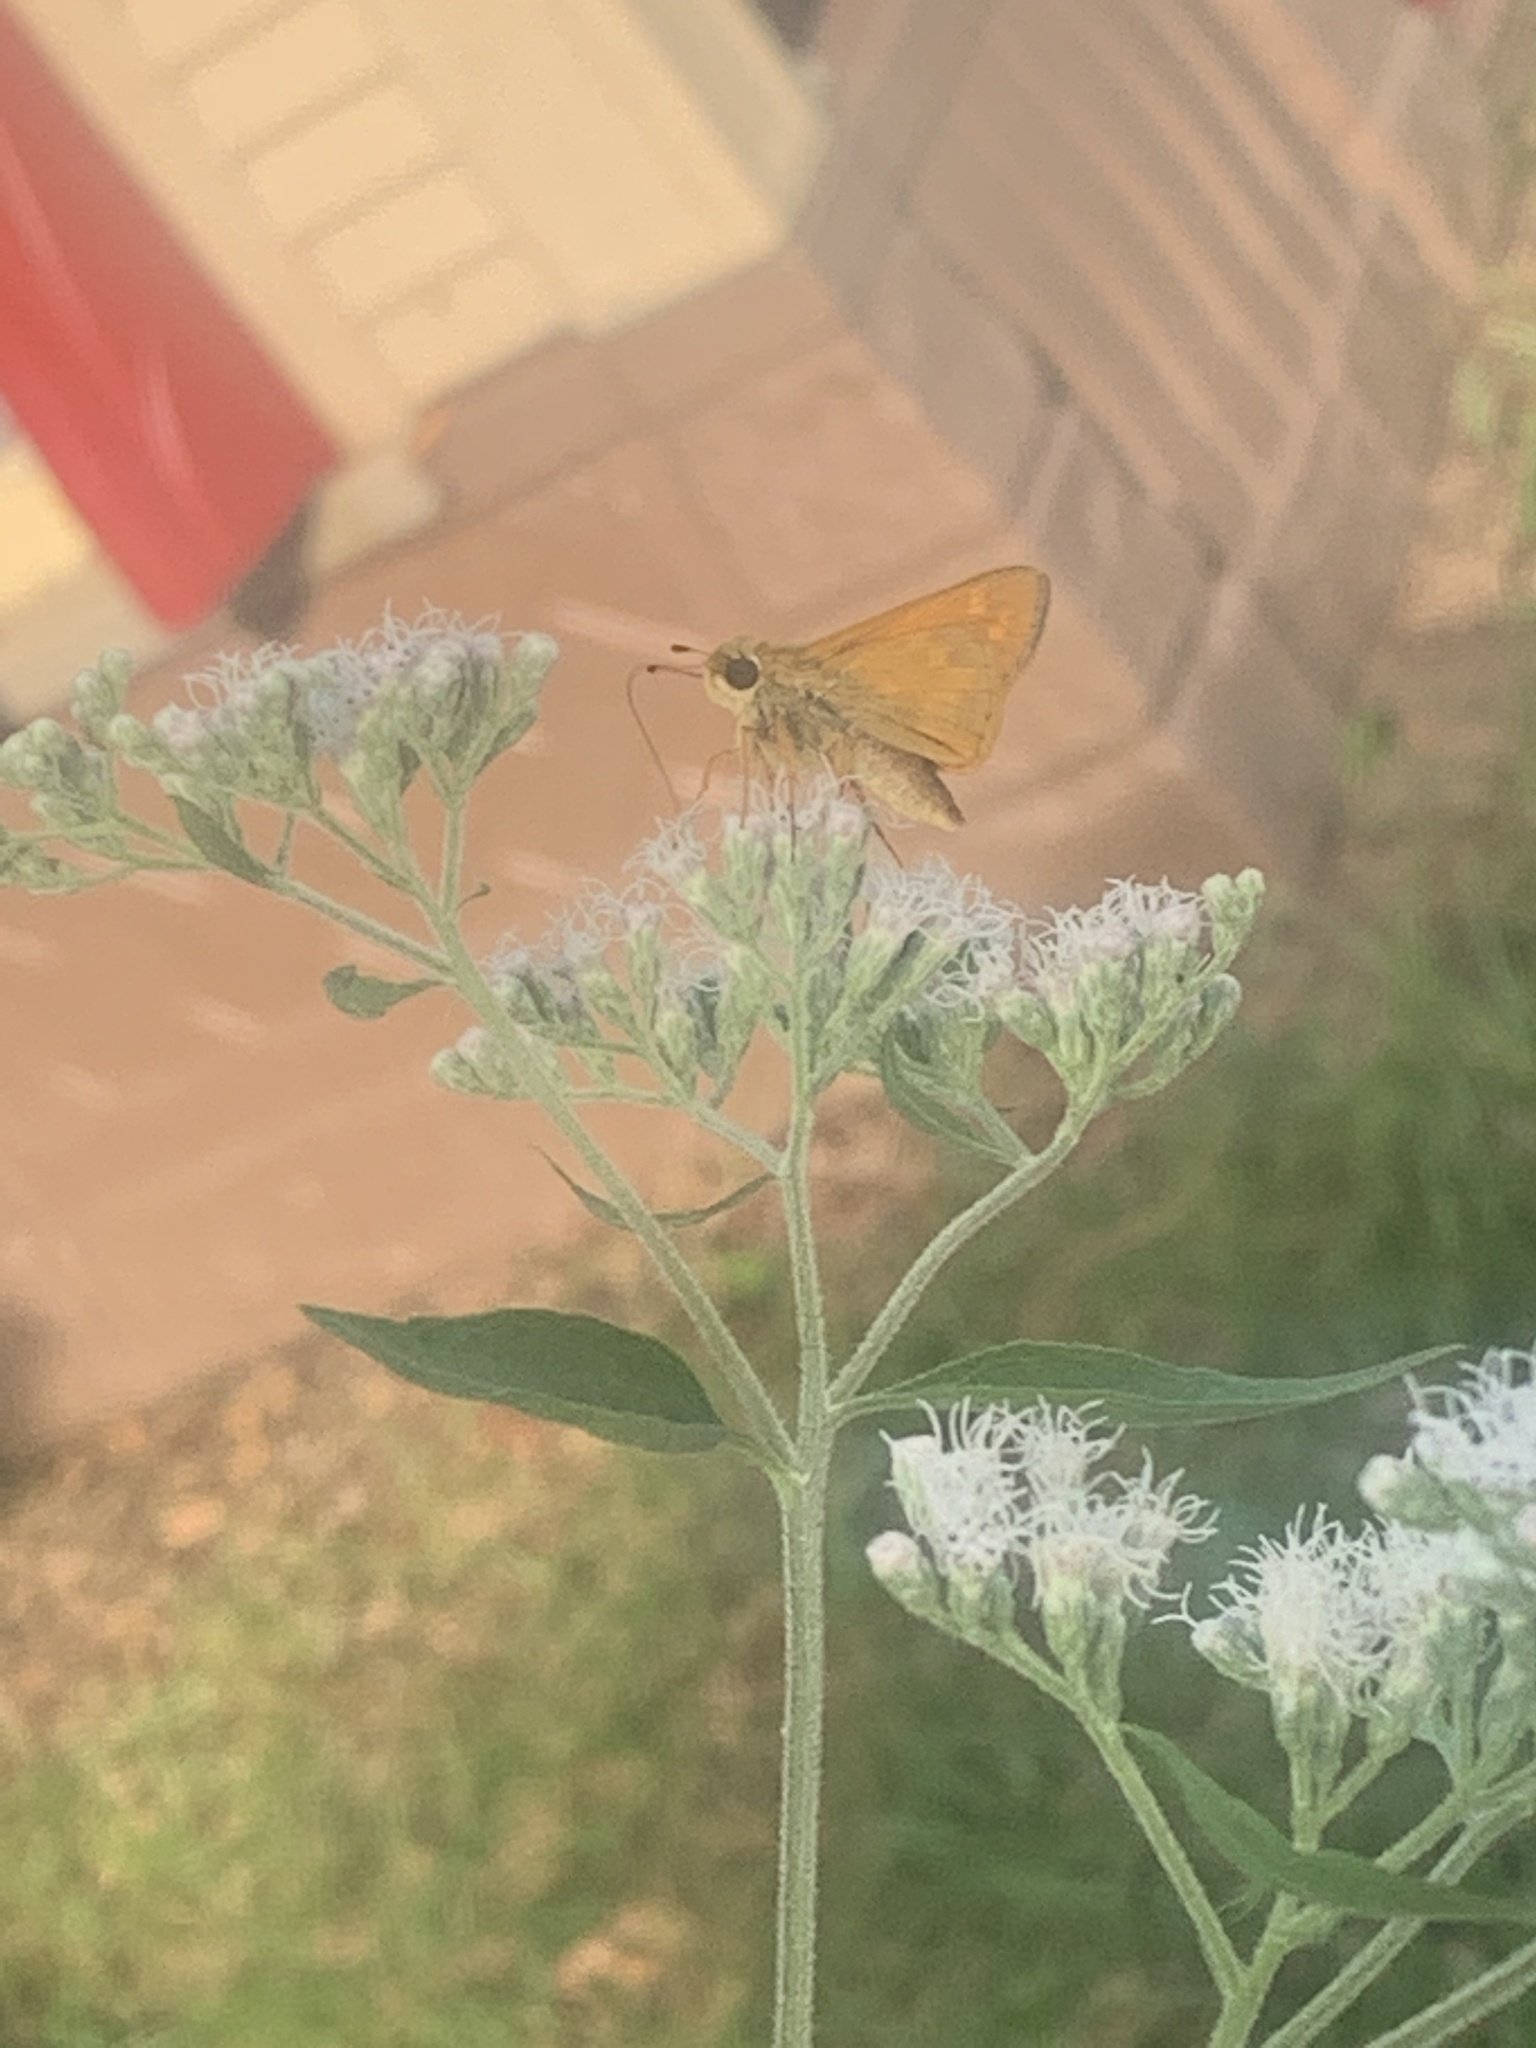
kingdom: Animalia
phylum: Arthropoda
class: Insecta
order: Lepidoptera
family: Hesperiidae
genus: Atalopedes
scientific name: Atalopedes
